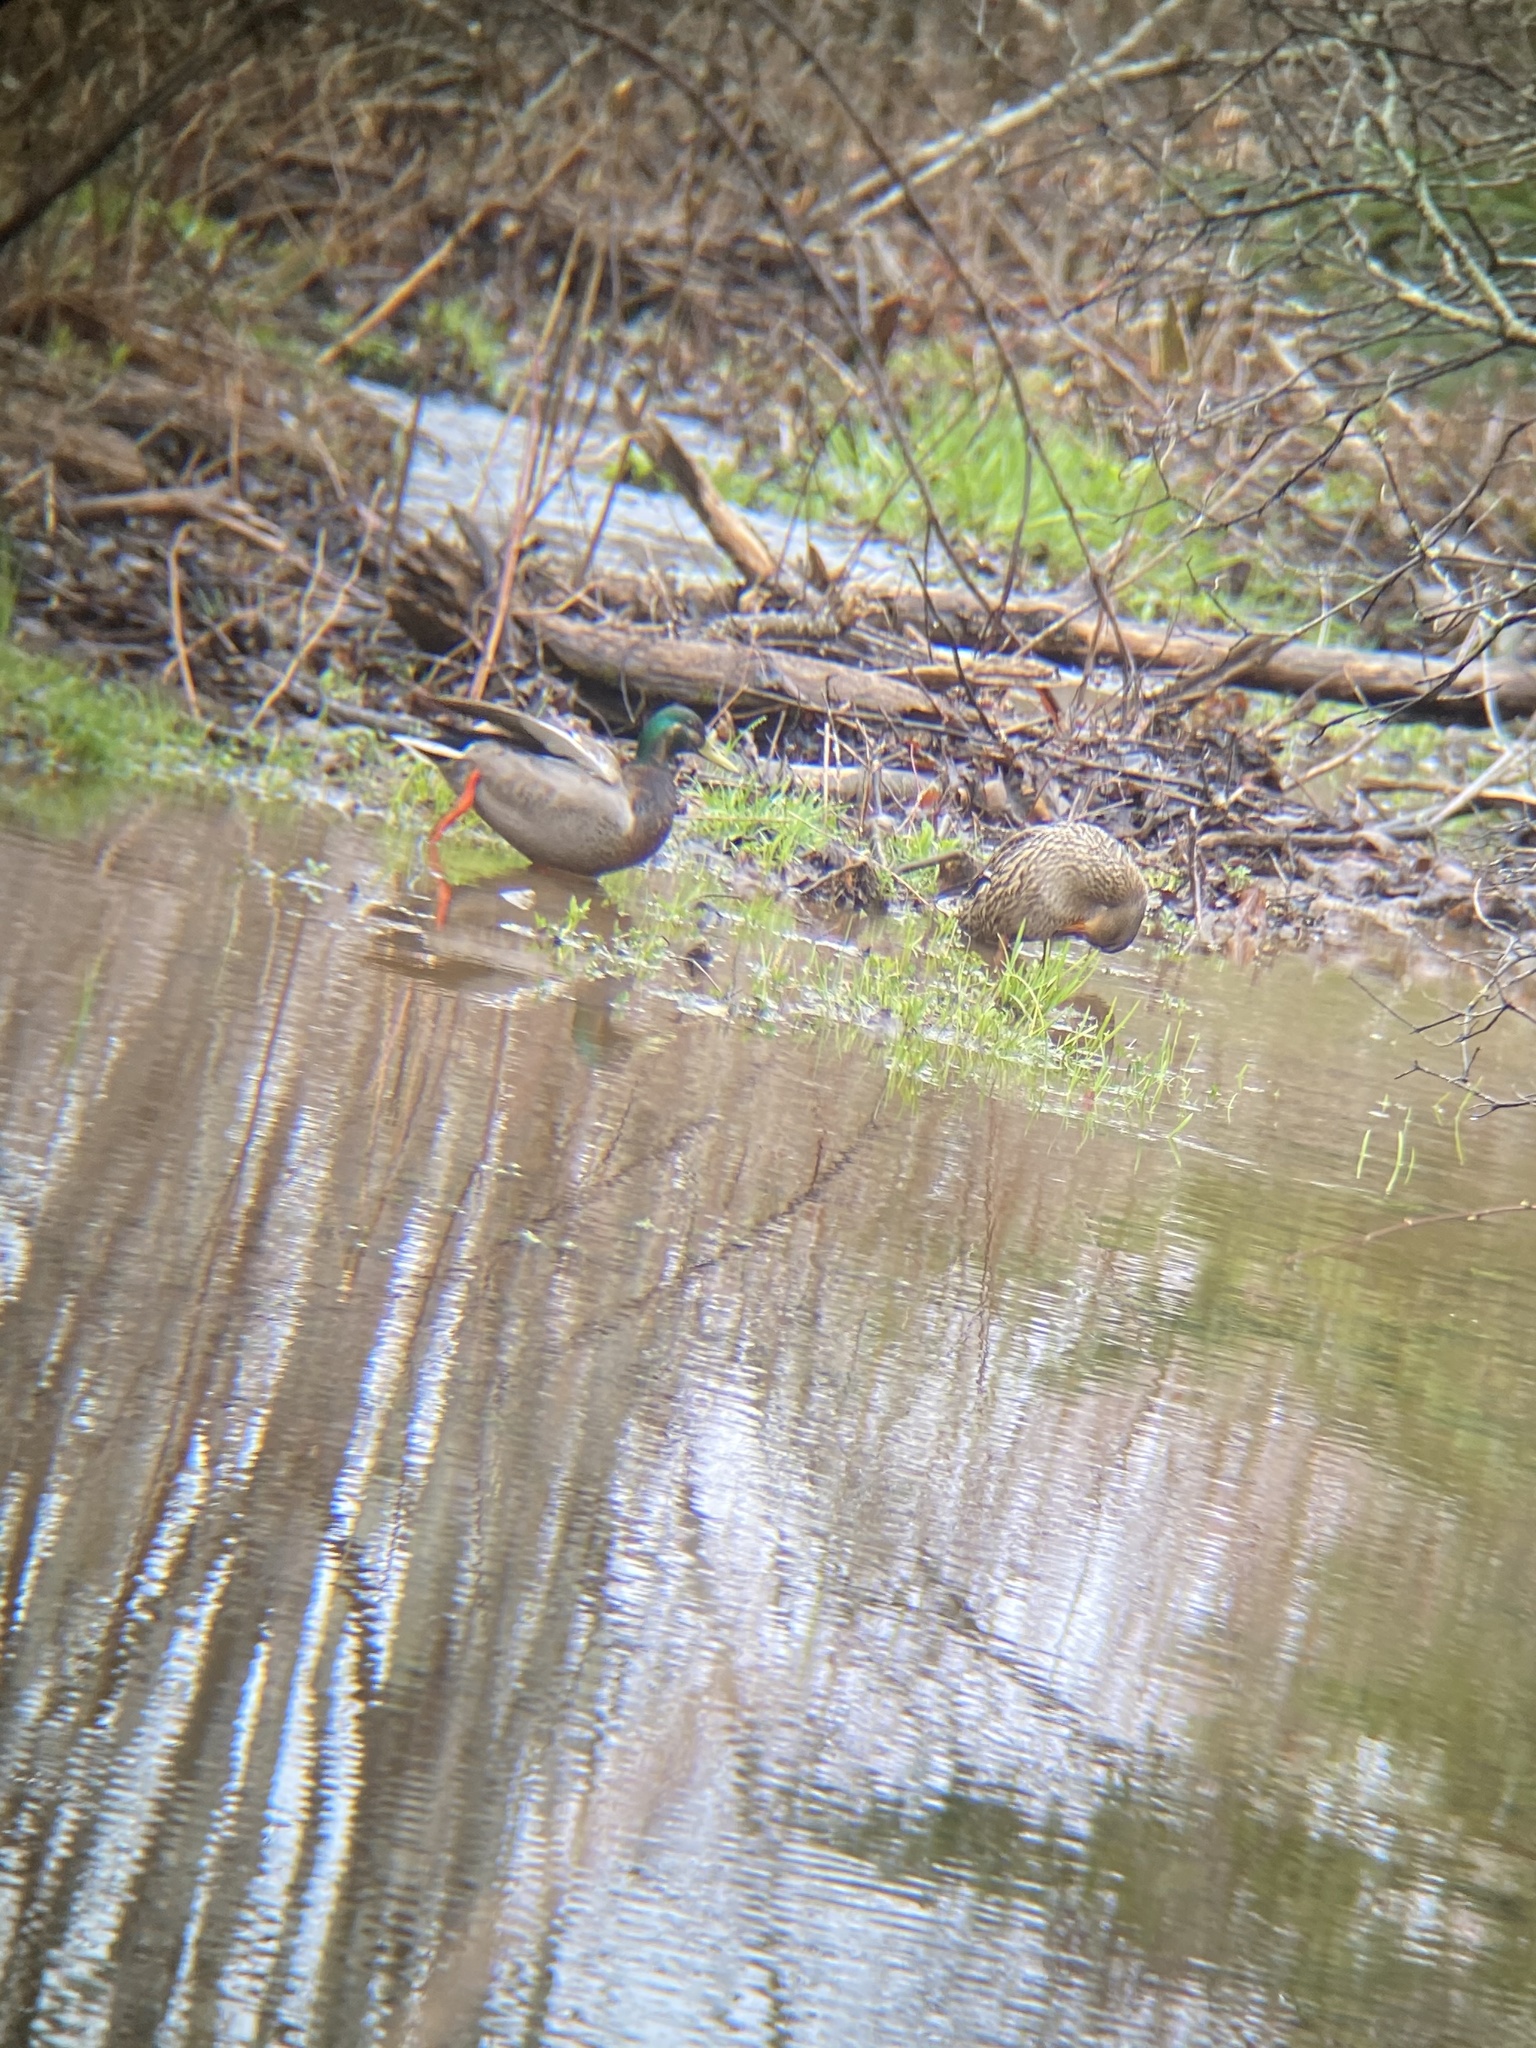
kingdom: Animalia
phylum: Chordata
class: Aves
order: Anseriformes
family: Anatidae
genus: Anas
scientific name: Anas platyrhynchos
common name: Mallard
